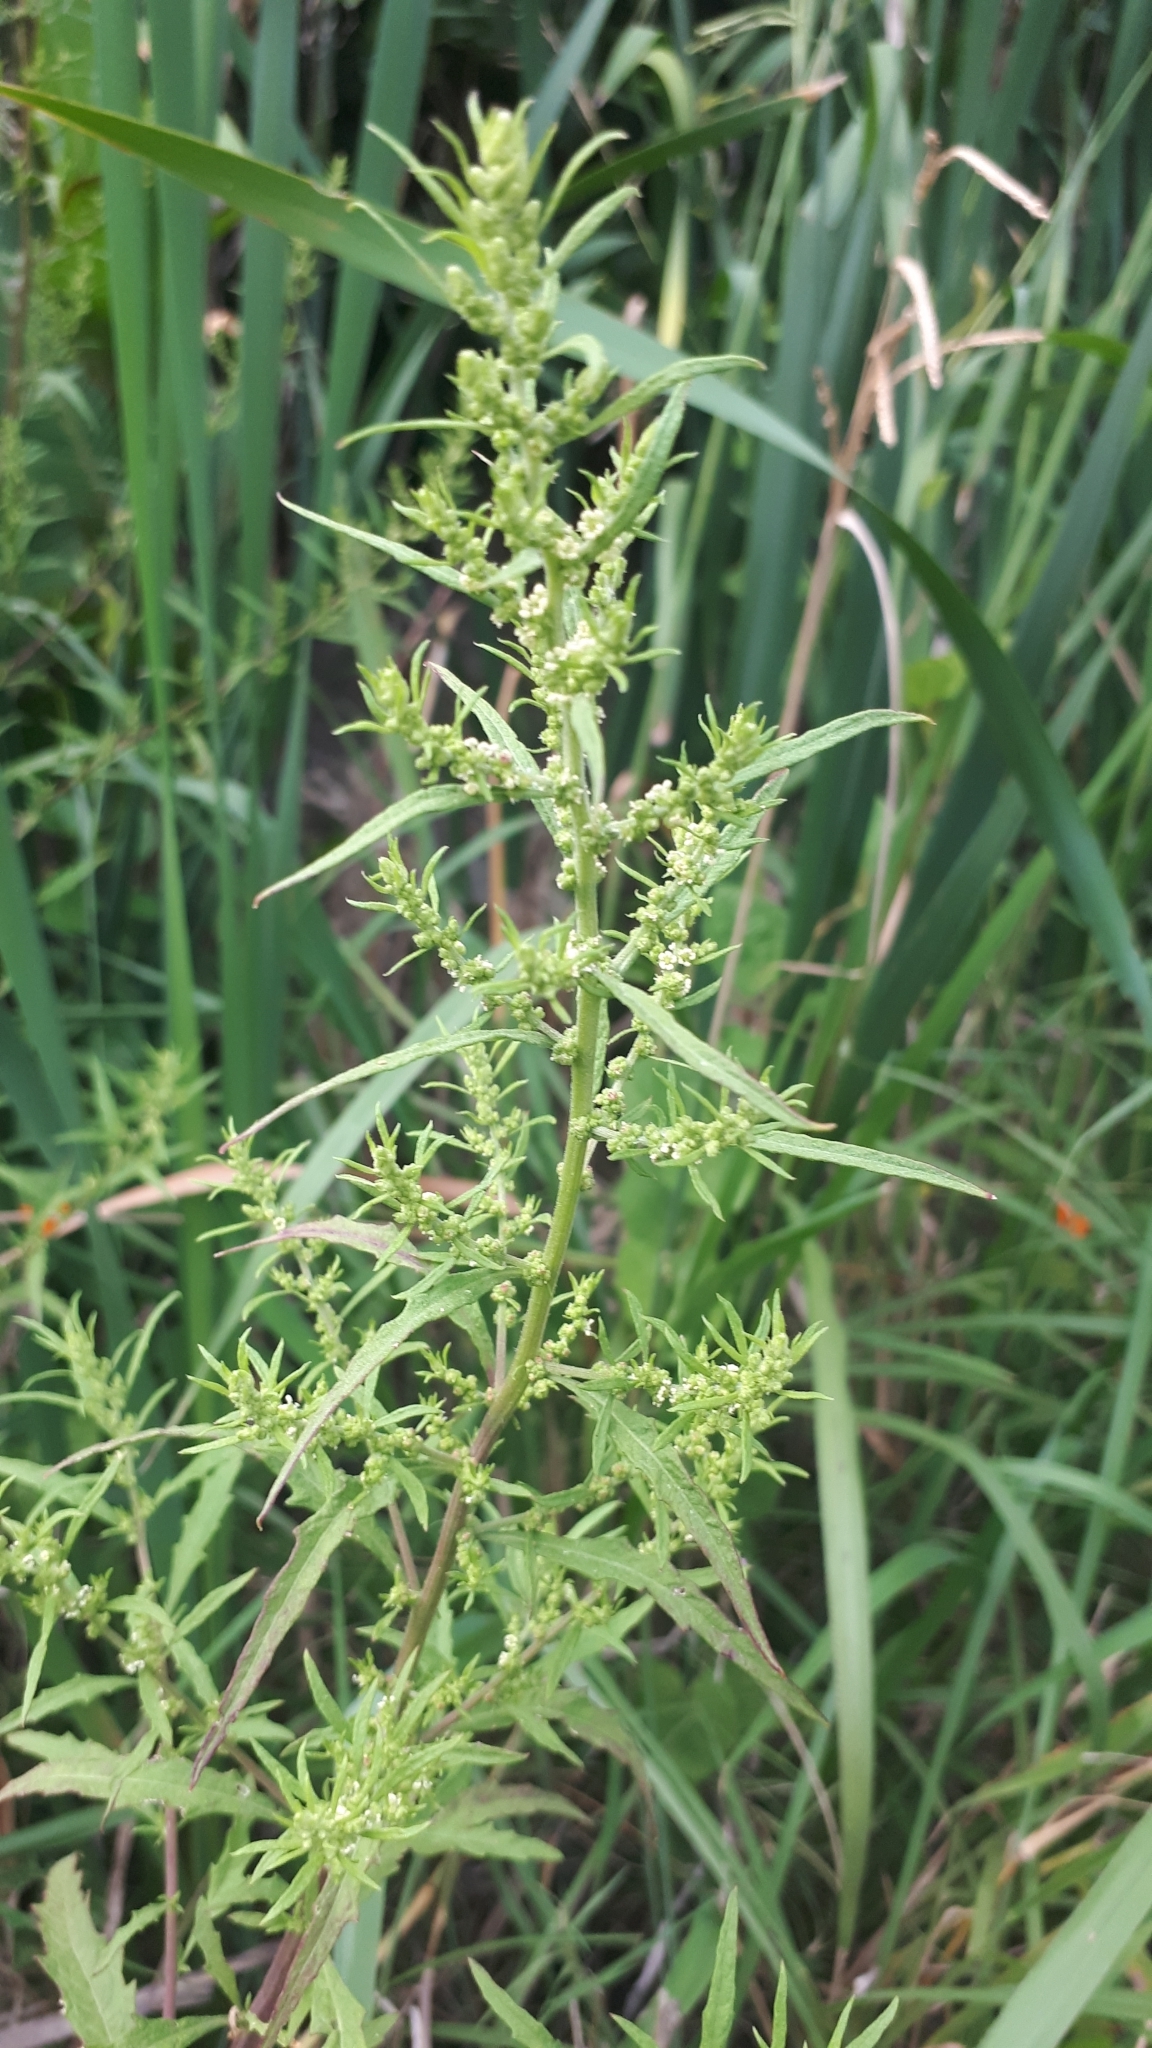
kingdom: Plantae
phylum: Tracheophyta
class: Magnoliopsida
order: Caryophyllales
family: Amaranthaceae
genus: Dysphania
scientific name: Dysphania ambrosioides
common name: Wormseed
